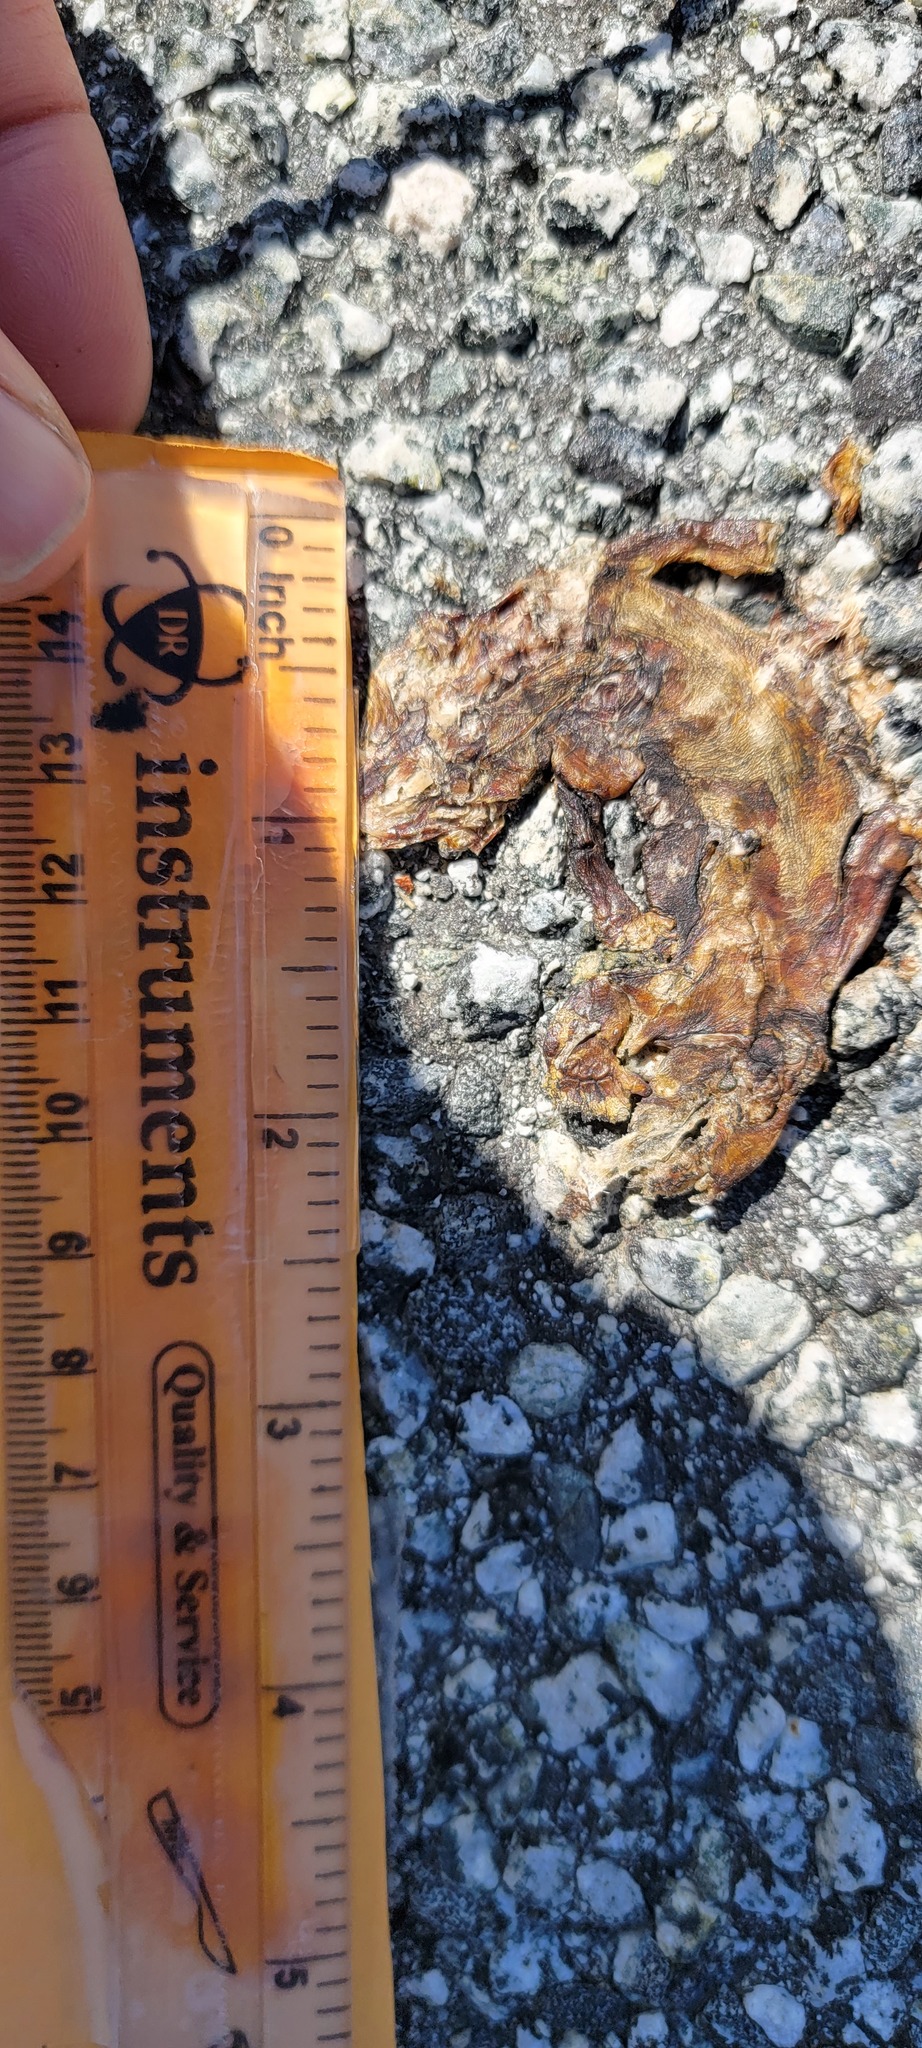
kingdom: Animalia
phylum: Chordata
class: Amphibia
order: Caudata
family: Salamandridae
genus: Taricha
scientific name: Taricha
